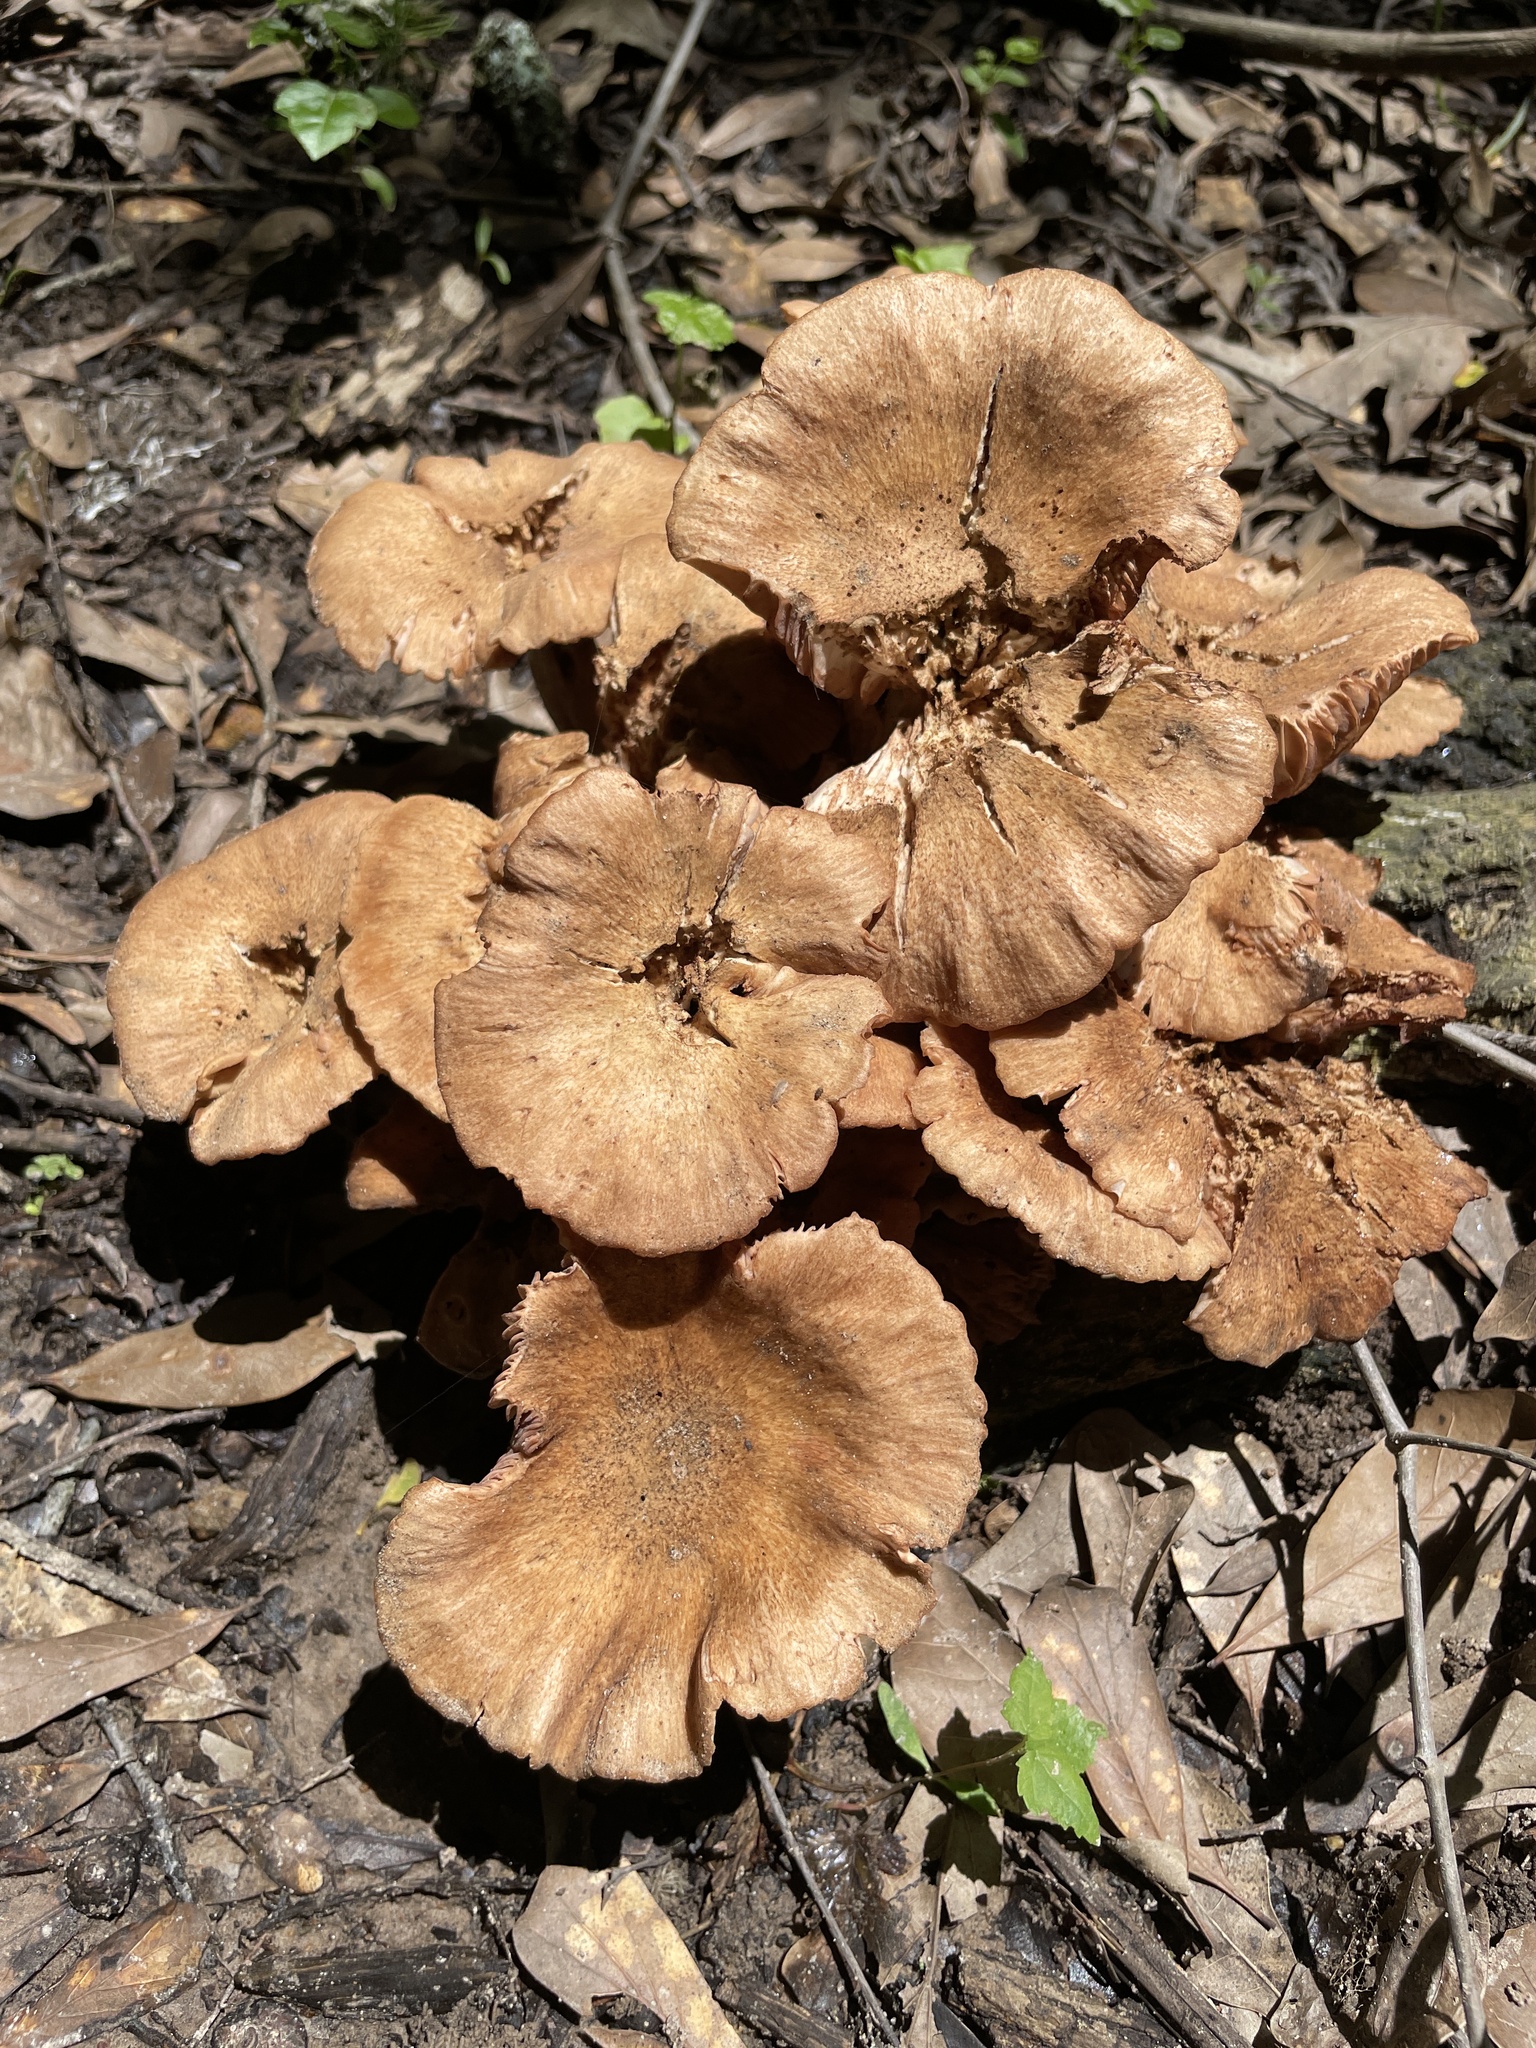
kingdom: Fungi
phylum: Basidiomycota
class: Agaricomycetes
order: Agaricales
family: Physalacriaceae
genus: Desarmillaria
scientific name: Desarmillaria caespitosa
